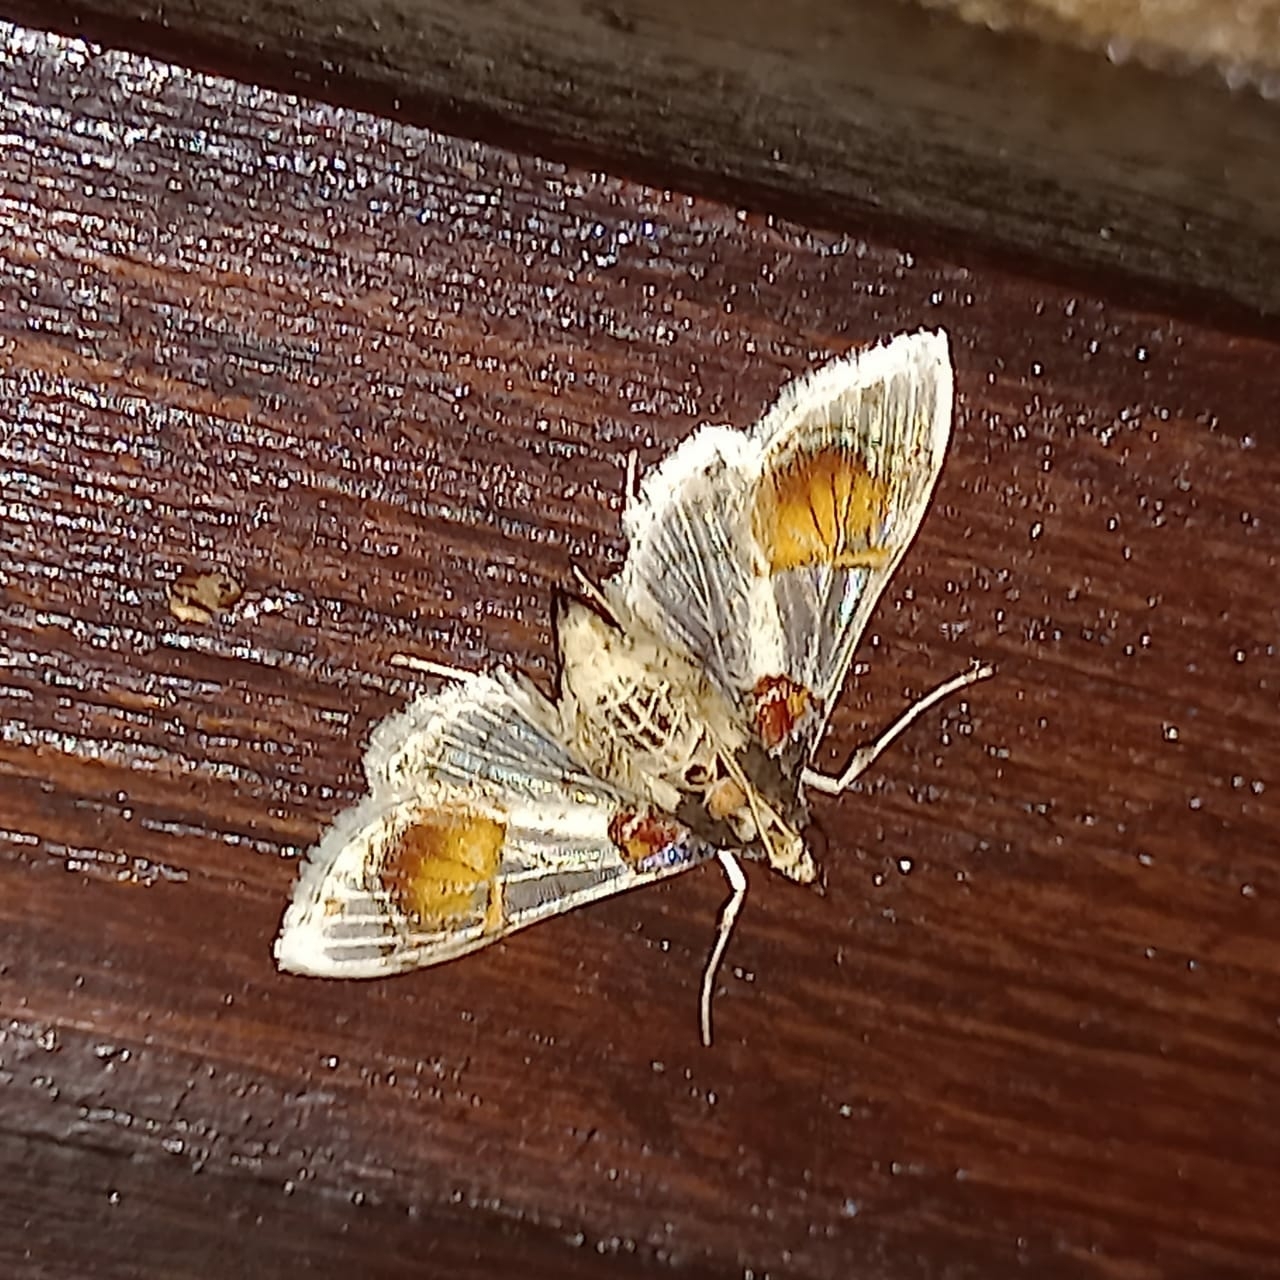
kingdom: Animalia
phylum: Arthropoda
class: Insecta
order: Lepidoptera
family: Crambidae
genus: Syngamilyta
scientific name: Syngamilyta samarialis
